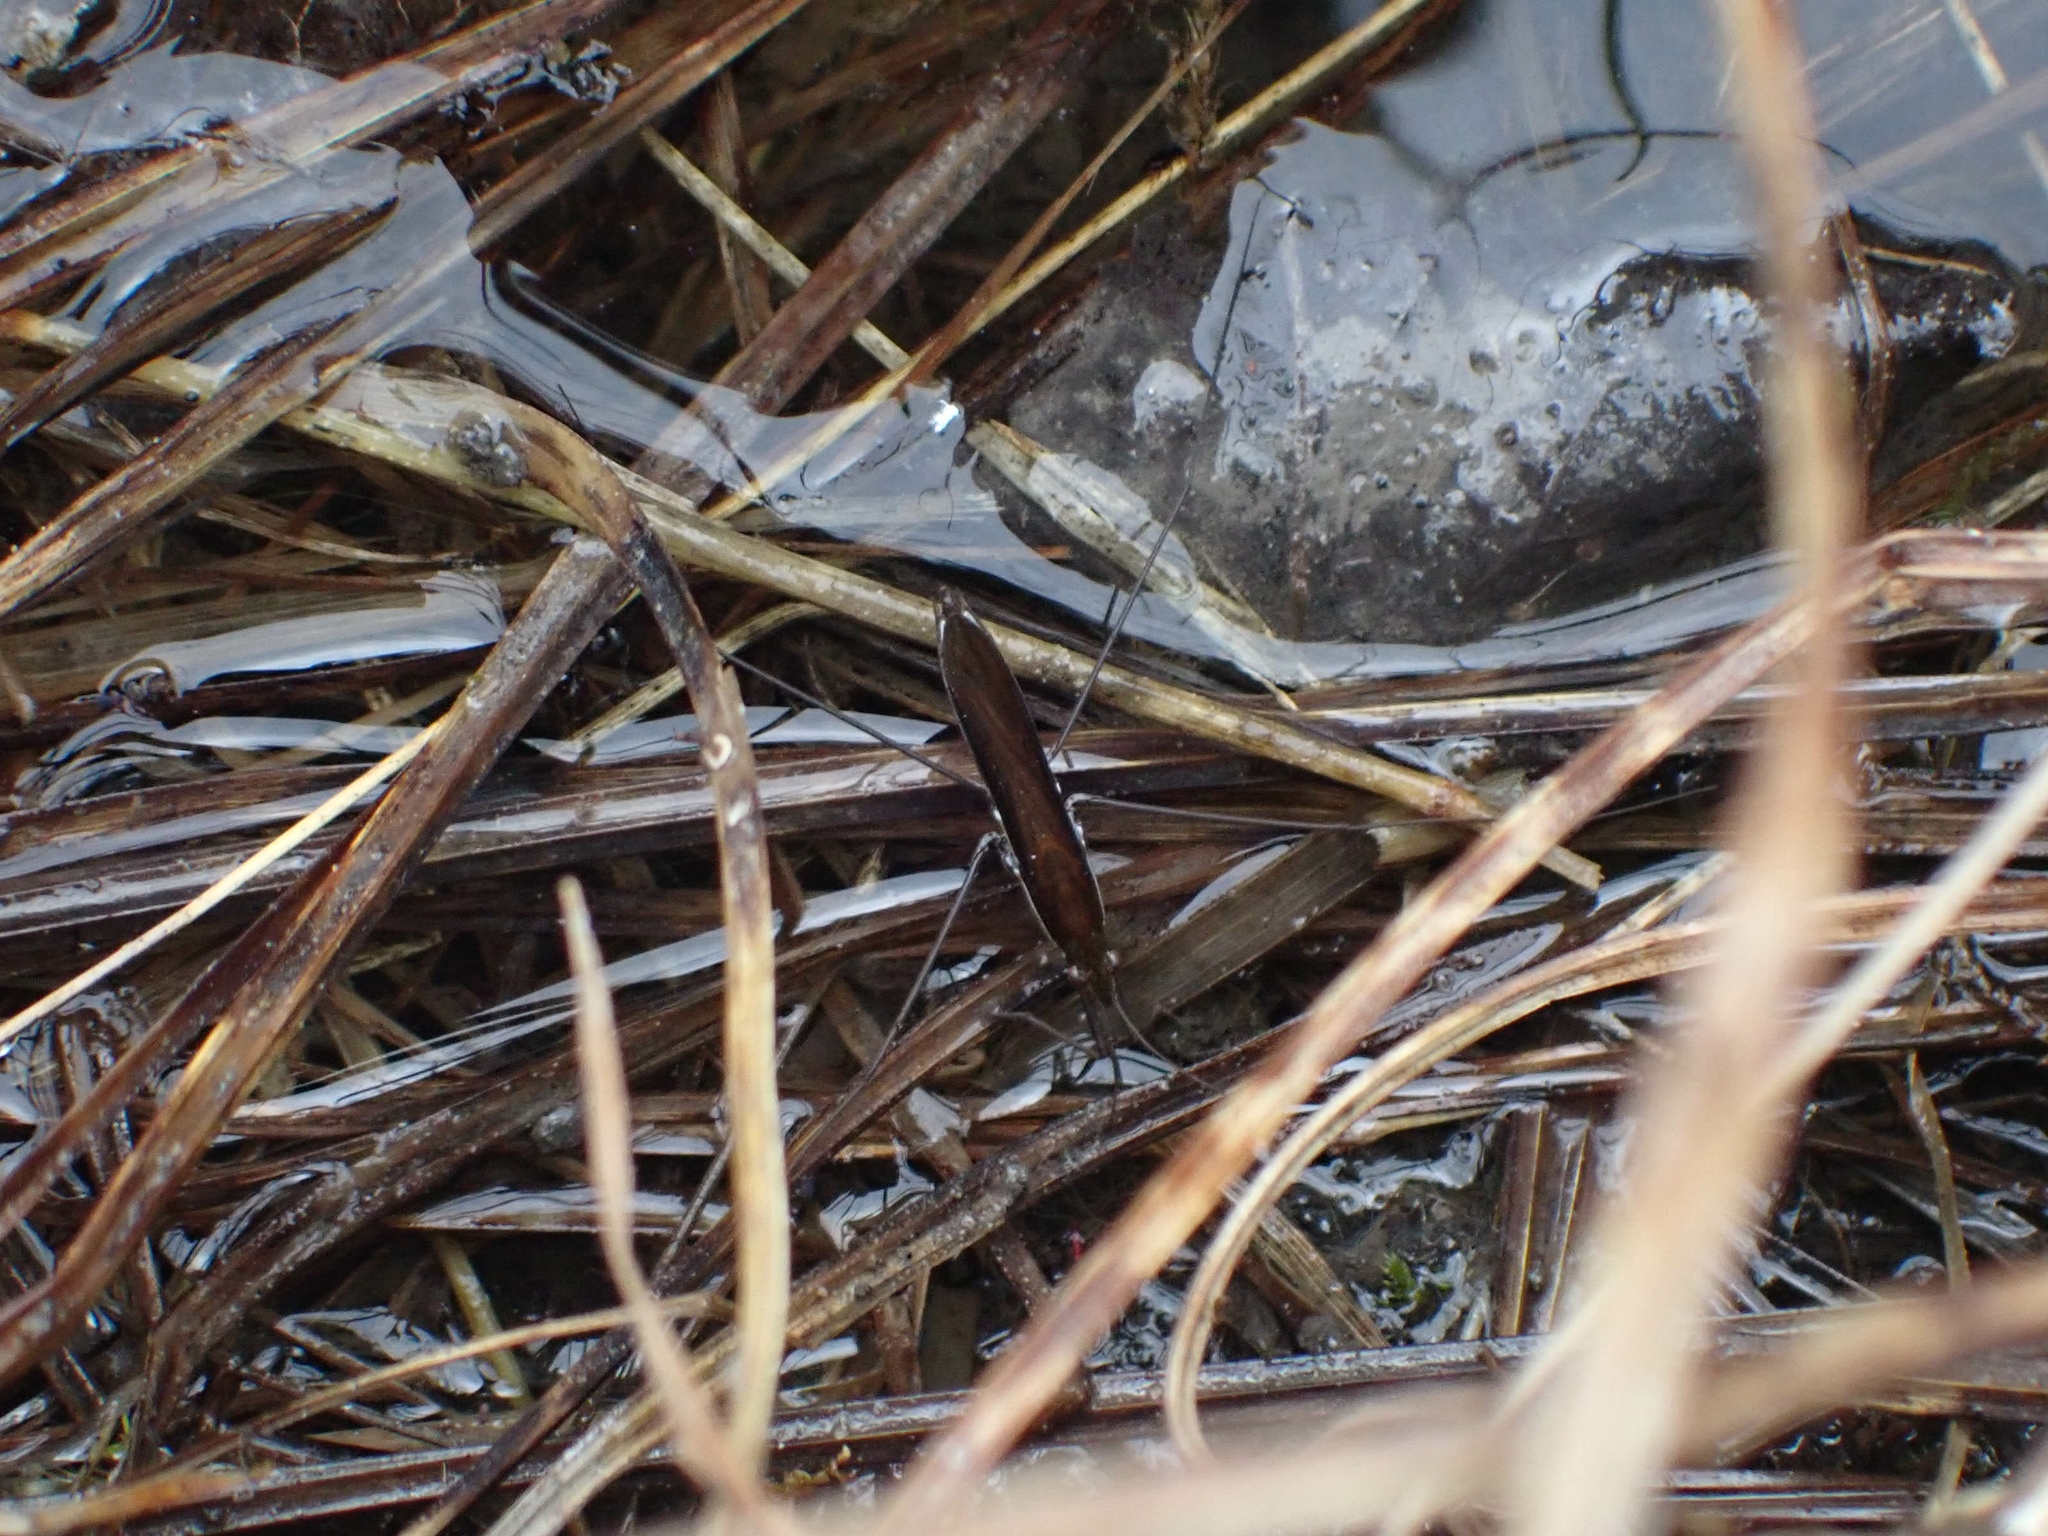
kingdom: Animalia
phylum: Arthropoda
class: Insecta
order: Hemiptera
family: Gerridae
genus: Limnoporus
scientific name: Limnoporus dissortis
